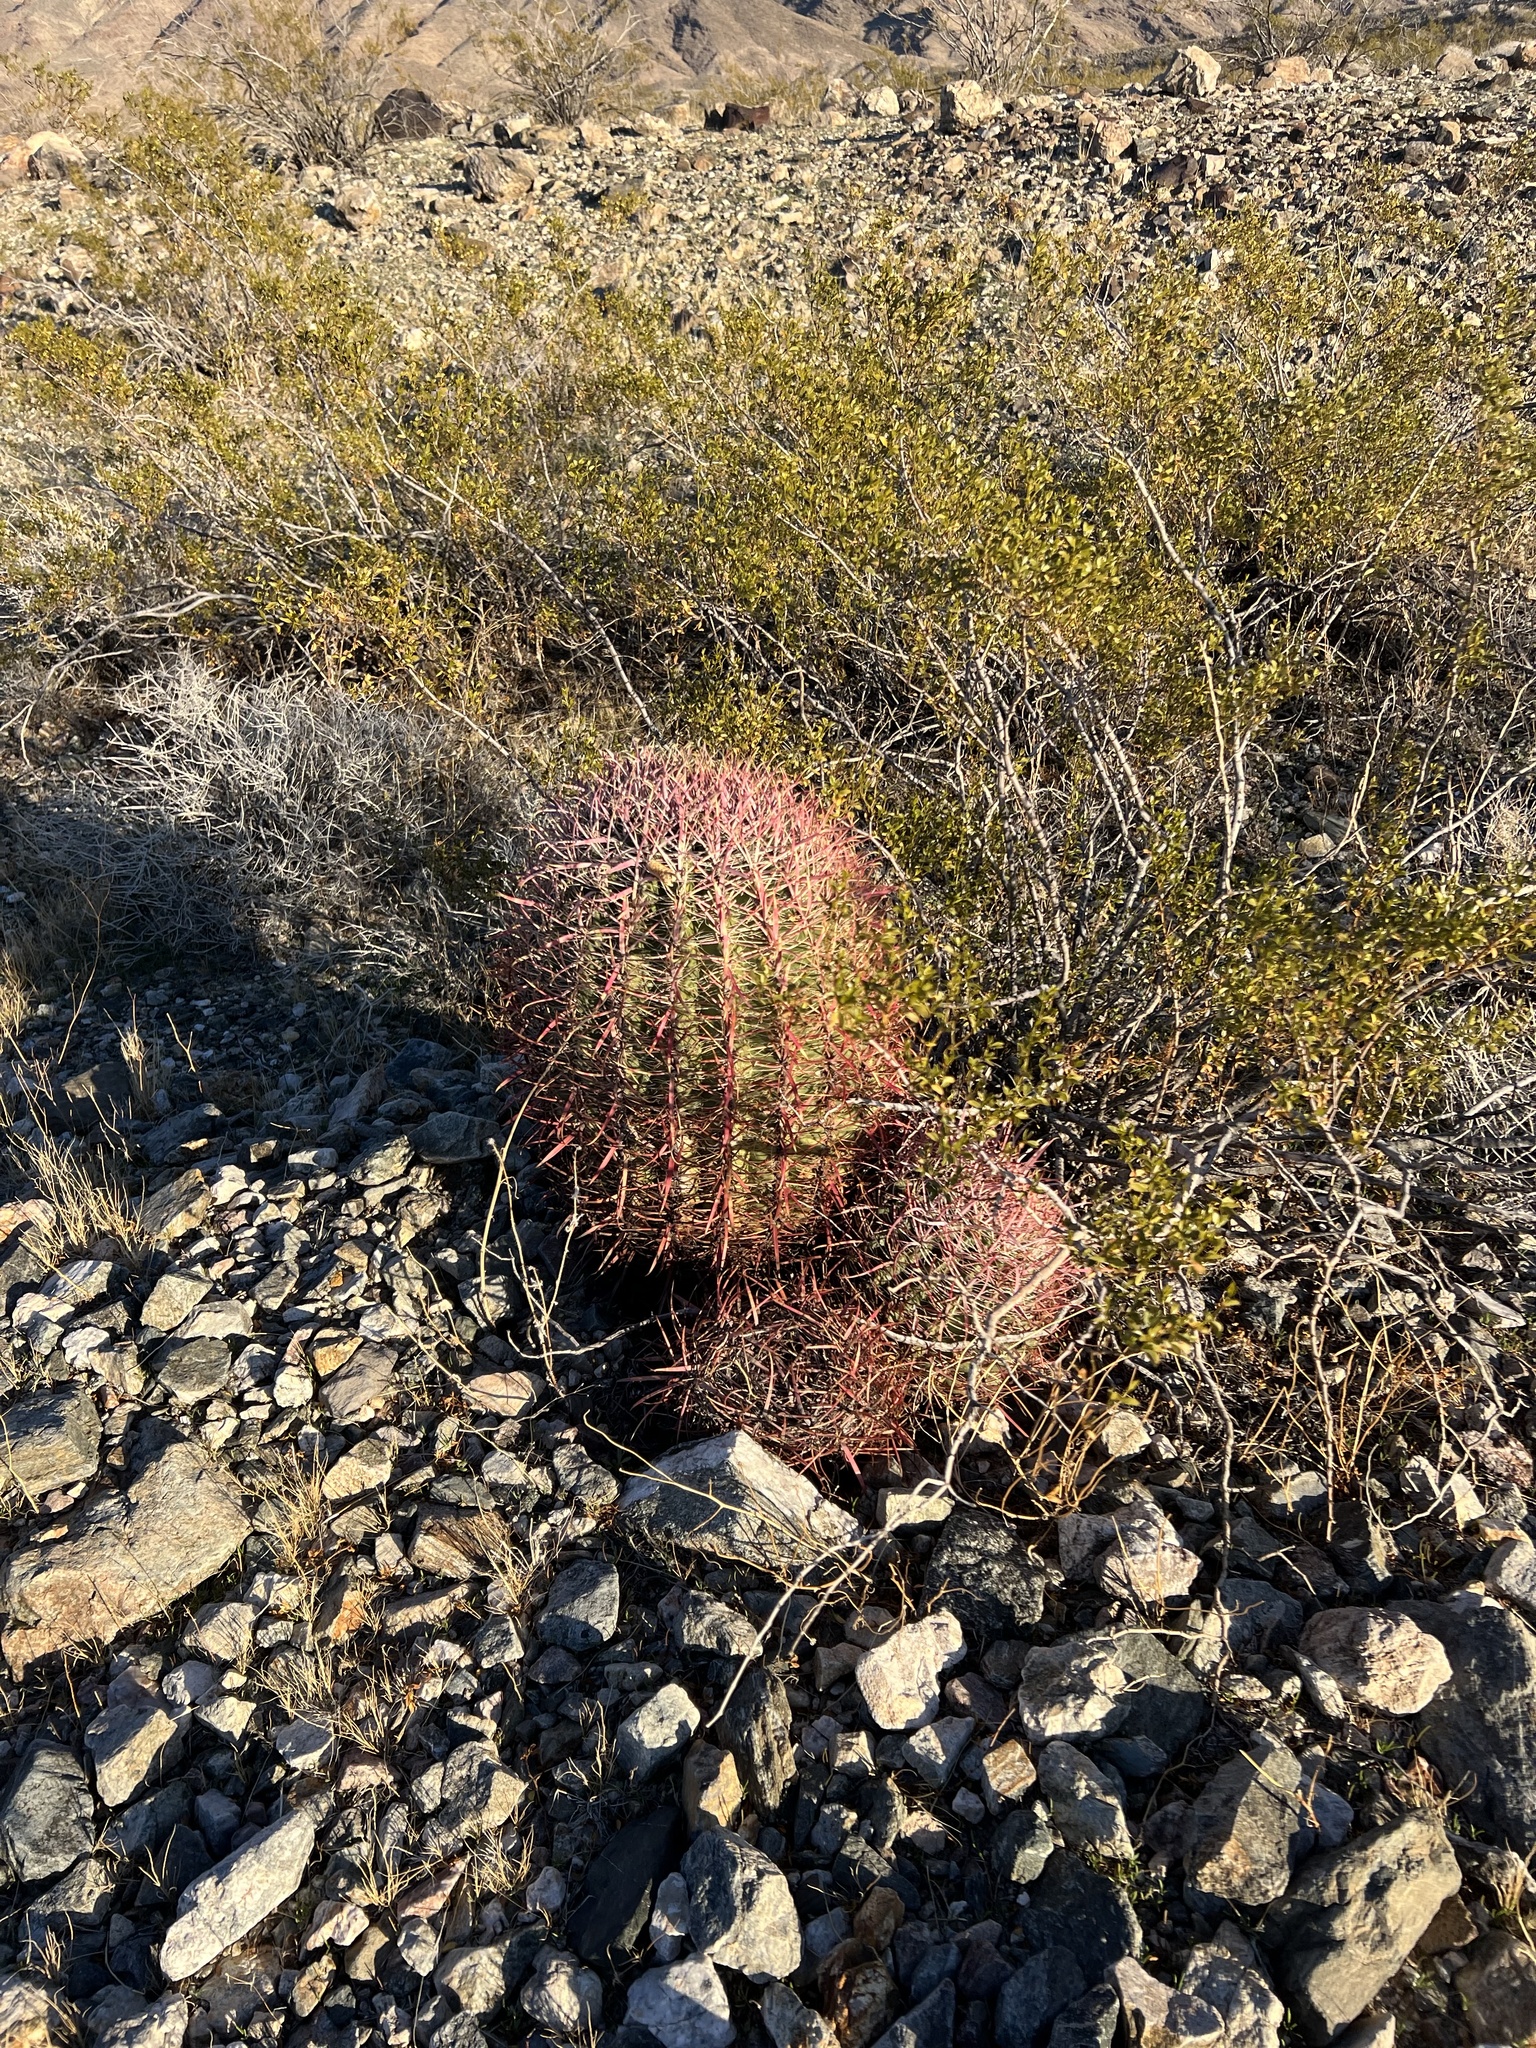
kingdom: Plantae
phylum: Tracheophyta
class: Magnoliopsida
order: Caryophyllales
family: Cactaceae
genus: Ferocactus
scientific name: Ferocactus cylindraceus
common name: California barrel cactus
